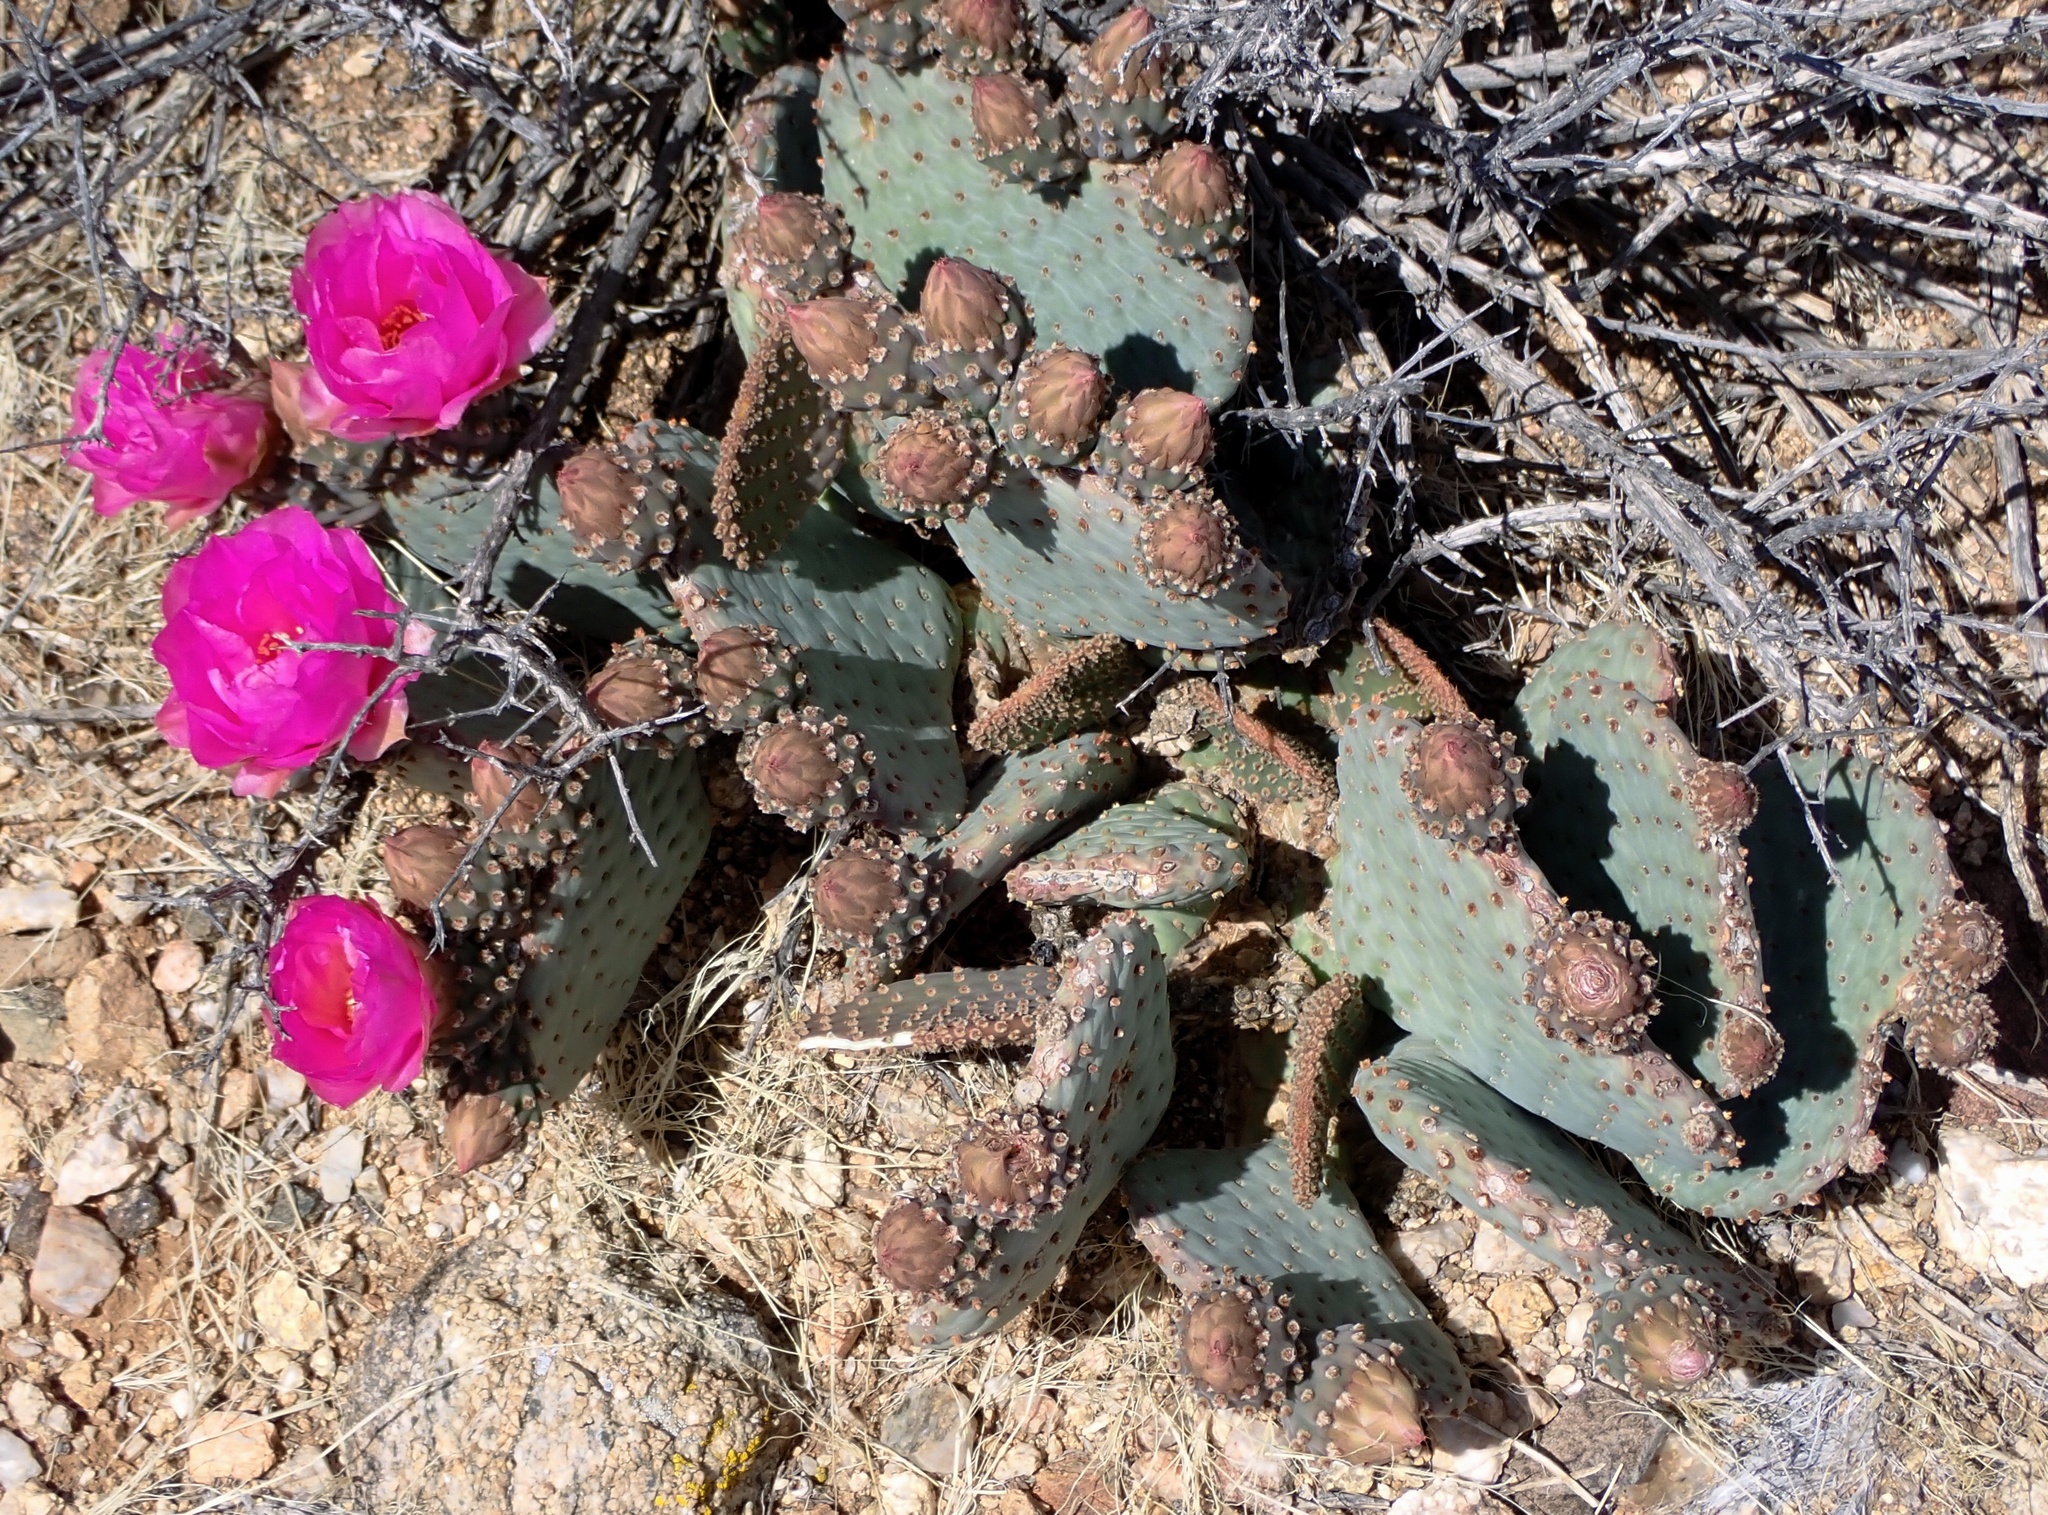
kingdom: Plantae
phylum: Tracheophyta
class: Magnoliopsida
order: Caryophyllales
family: Cactaceae
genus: Opuntia
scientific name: Opuntia basilaris
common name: Beavertail prickly-pear
